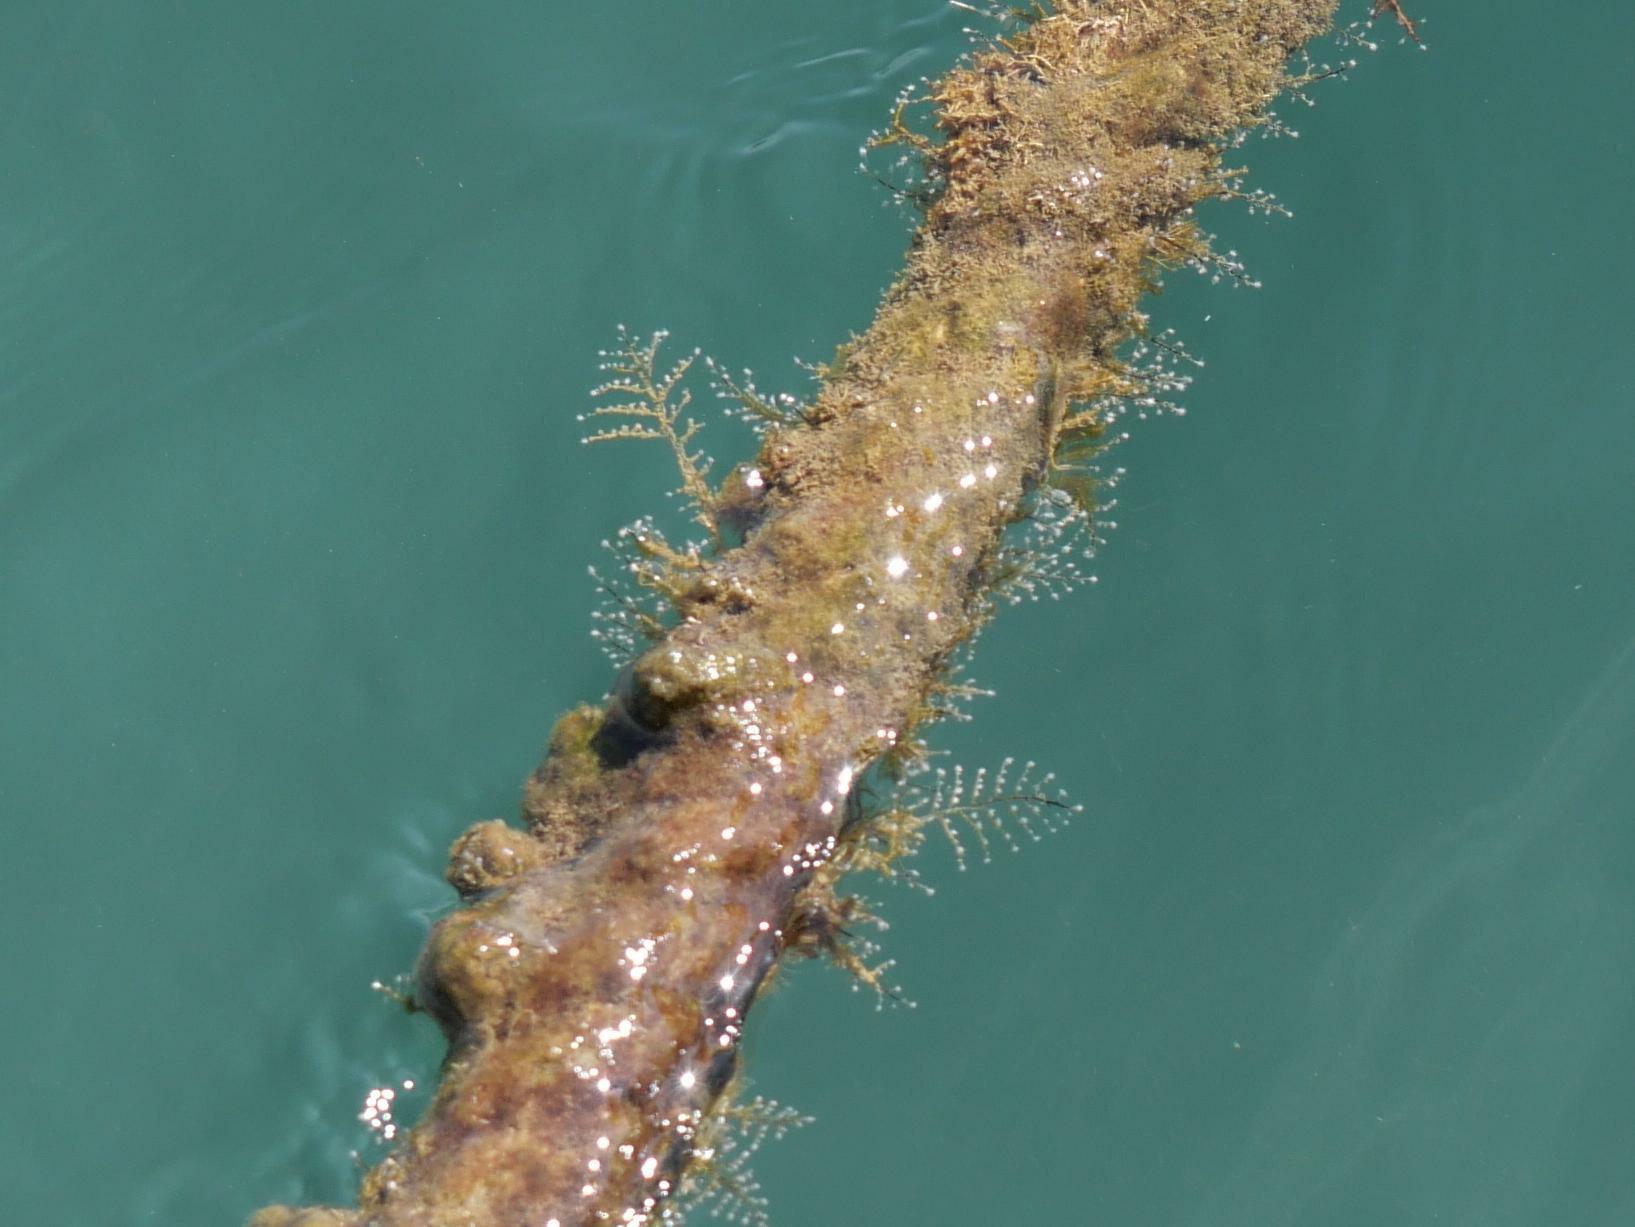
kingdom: Animalia
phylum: Cnidaria
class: Hydrozoa
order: Anthoathecata
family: Pennariidae
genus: Pennaria
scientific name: Pennaria disticha
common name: Feather hydroid
